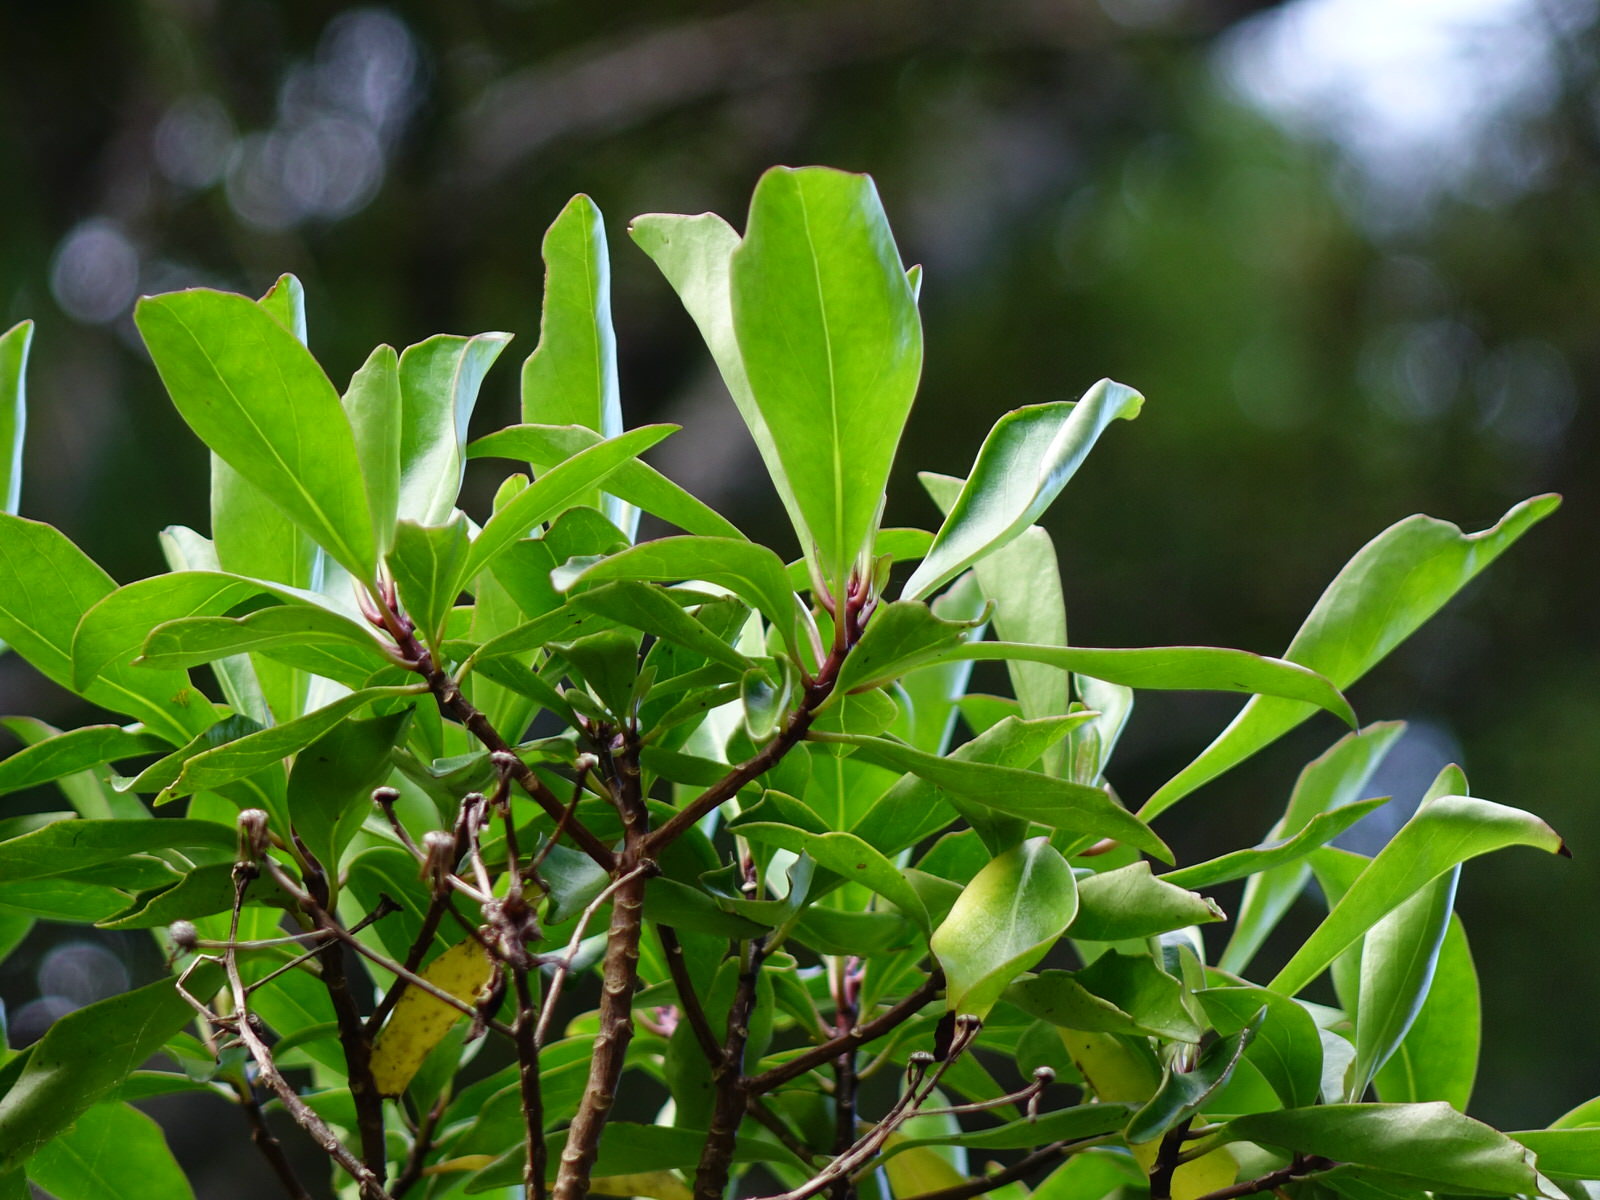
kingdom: Plantae
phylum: Tracheophyta
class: Magnoliopsida
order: Asterales
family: Asteraceae
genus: Brachyglottis
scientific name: Brachyglottis kirkii
